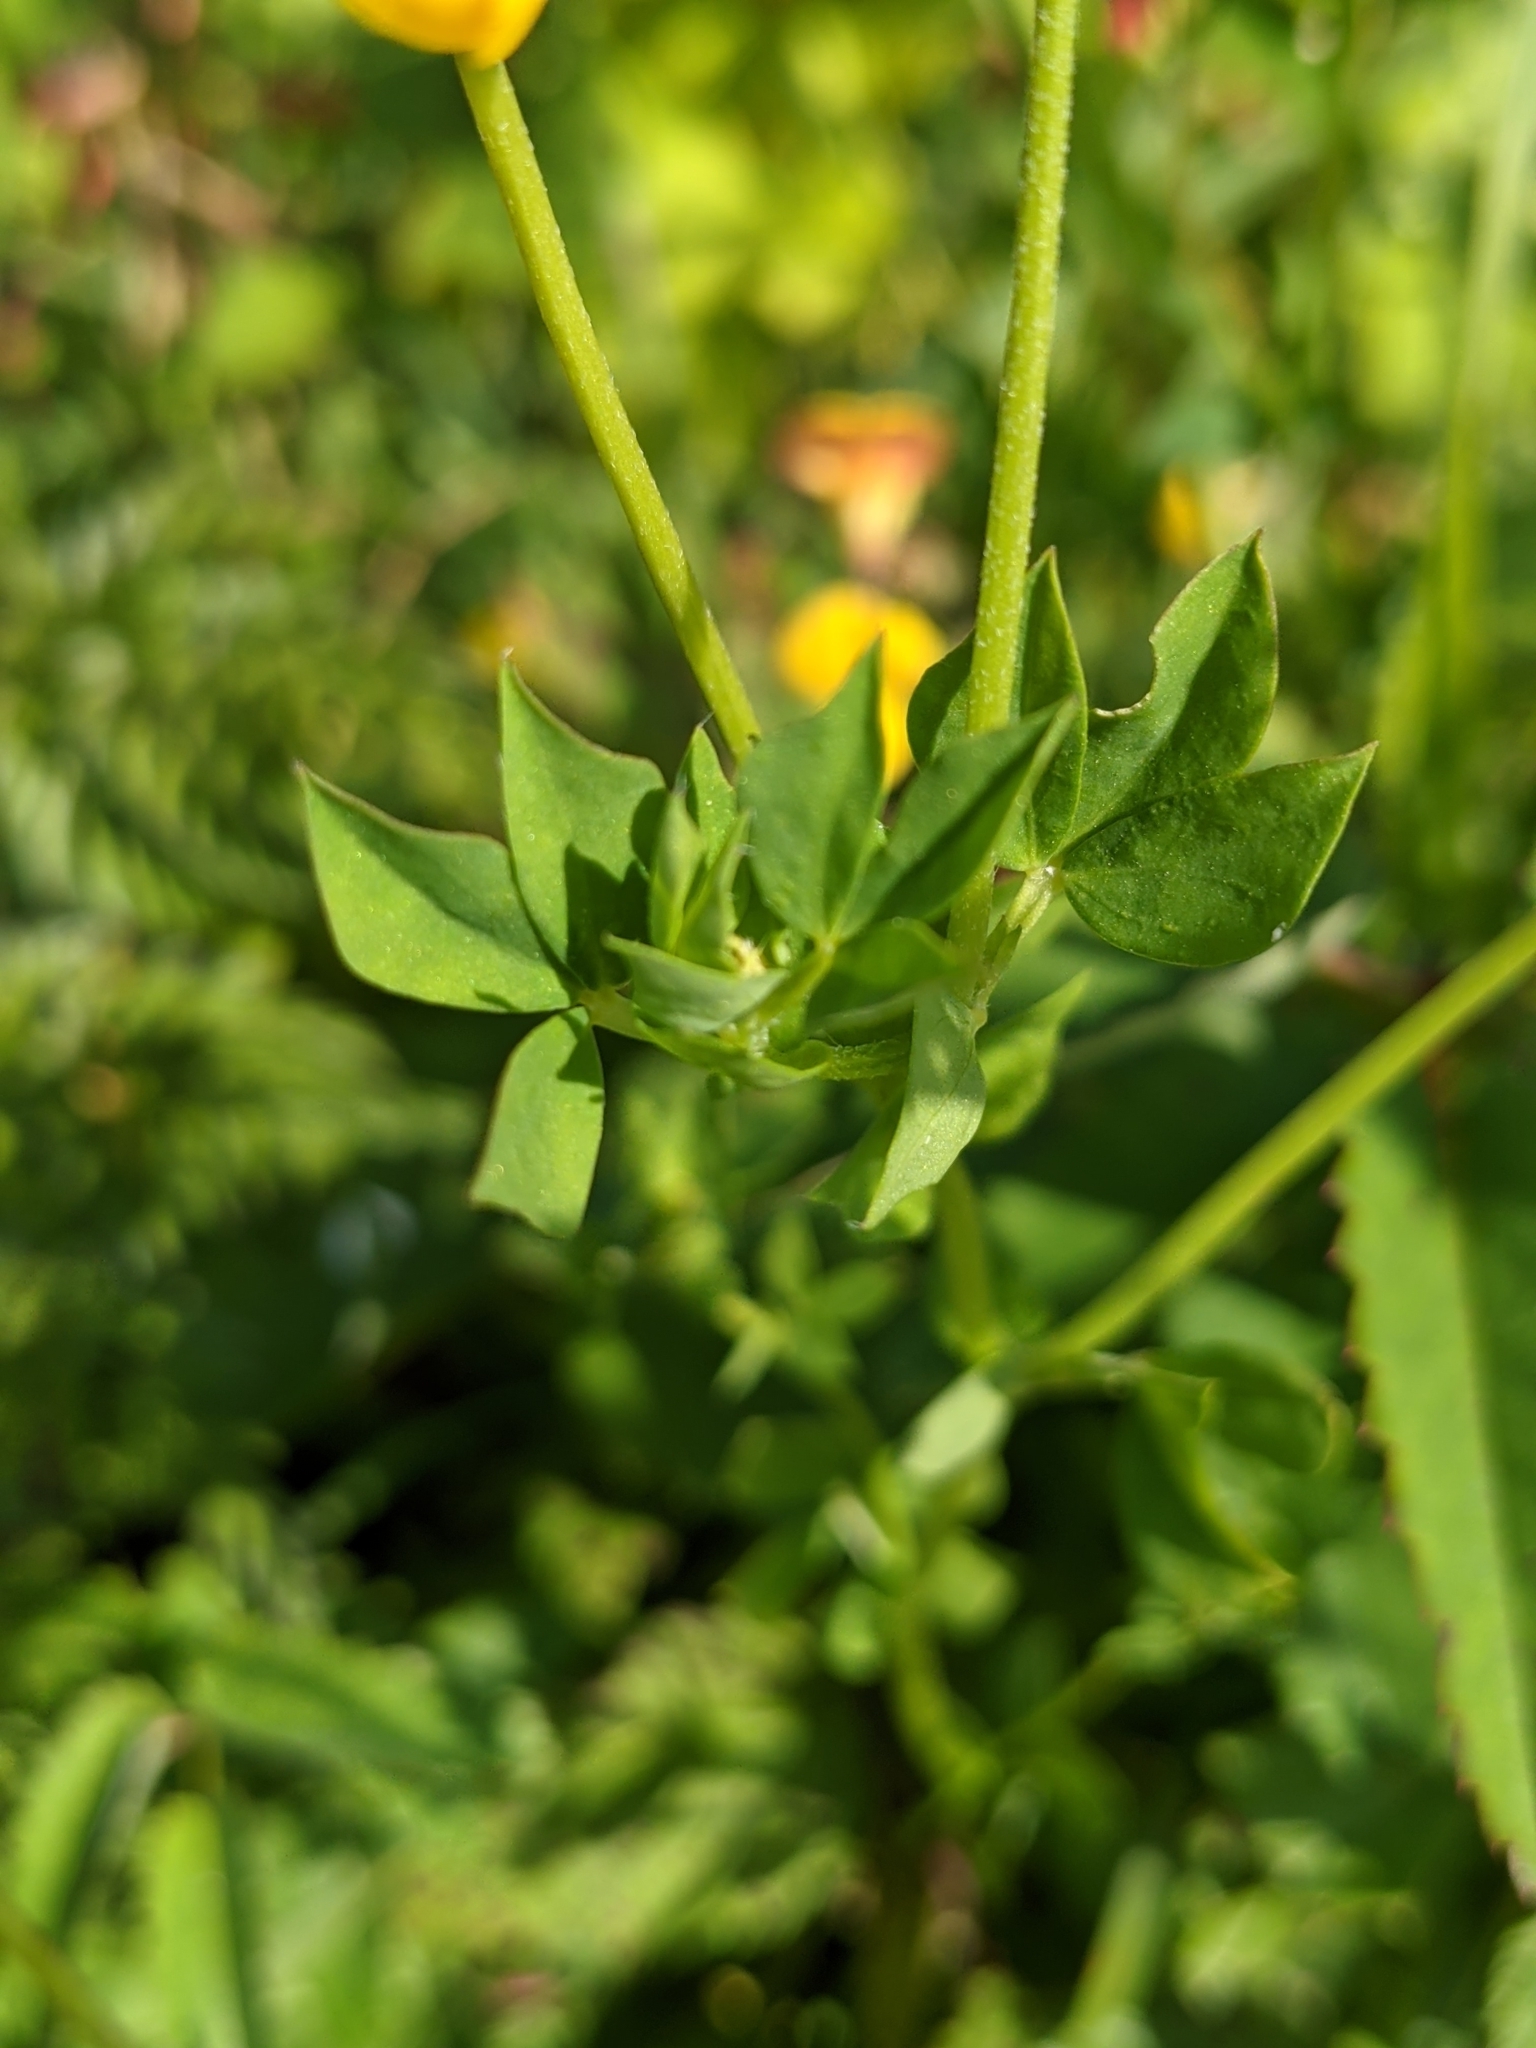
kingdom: Plantae
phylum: Tracheophyta
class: Magnoliopsida
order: Fabales
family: Fabaceae
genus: Lotus
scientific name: Lotus corniculatus
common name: Common bird's-foot-trefoil
